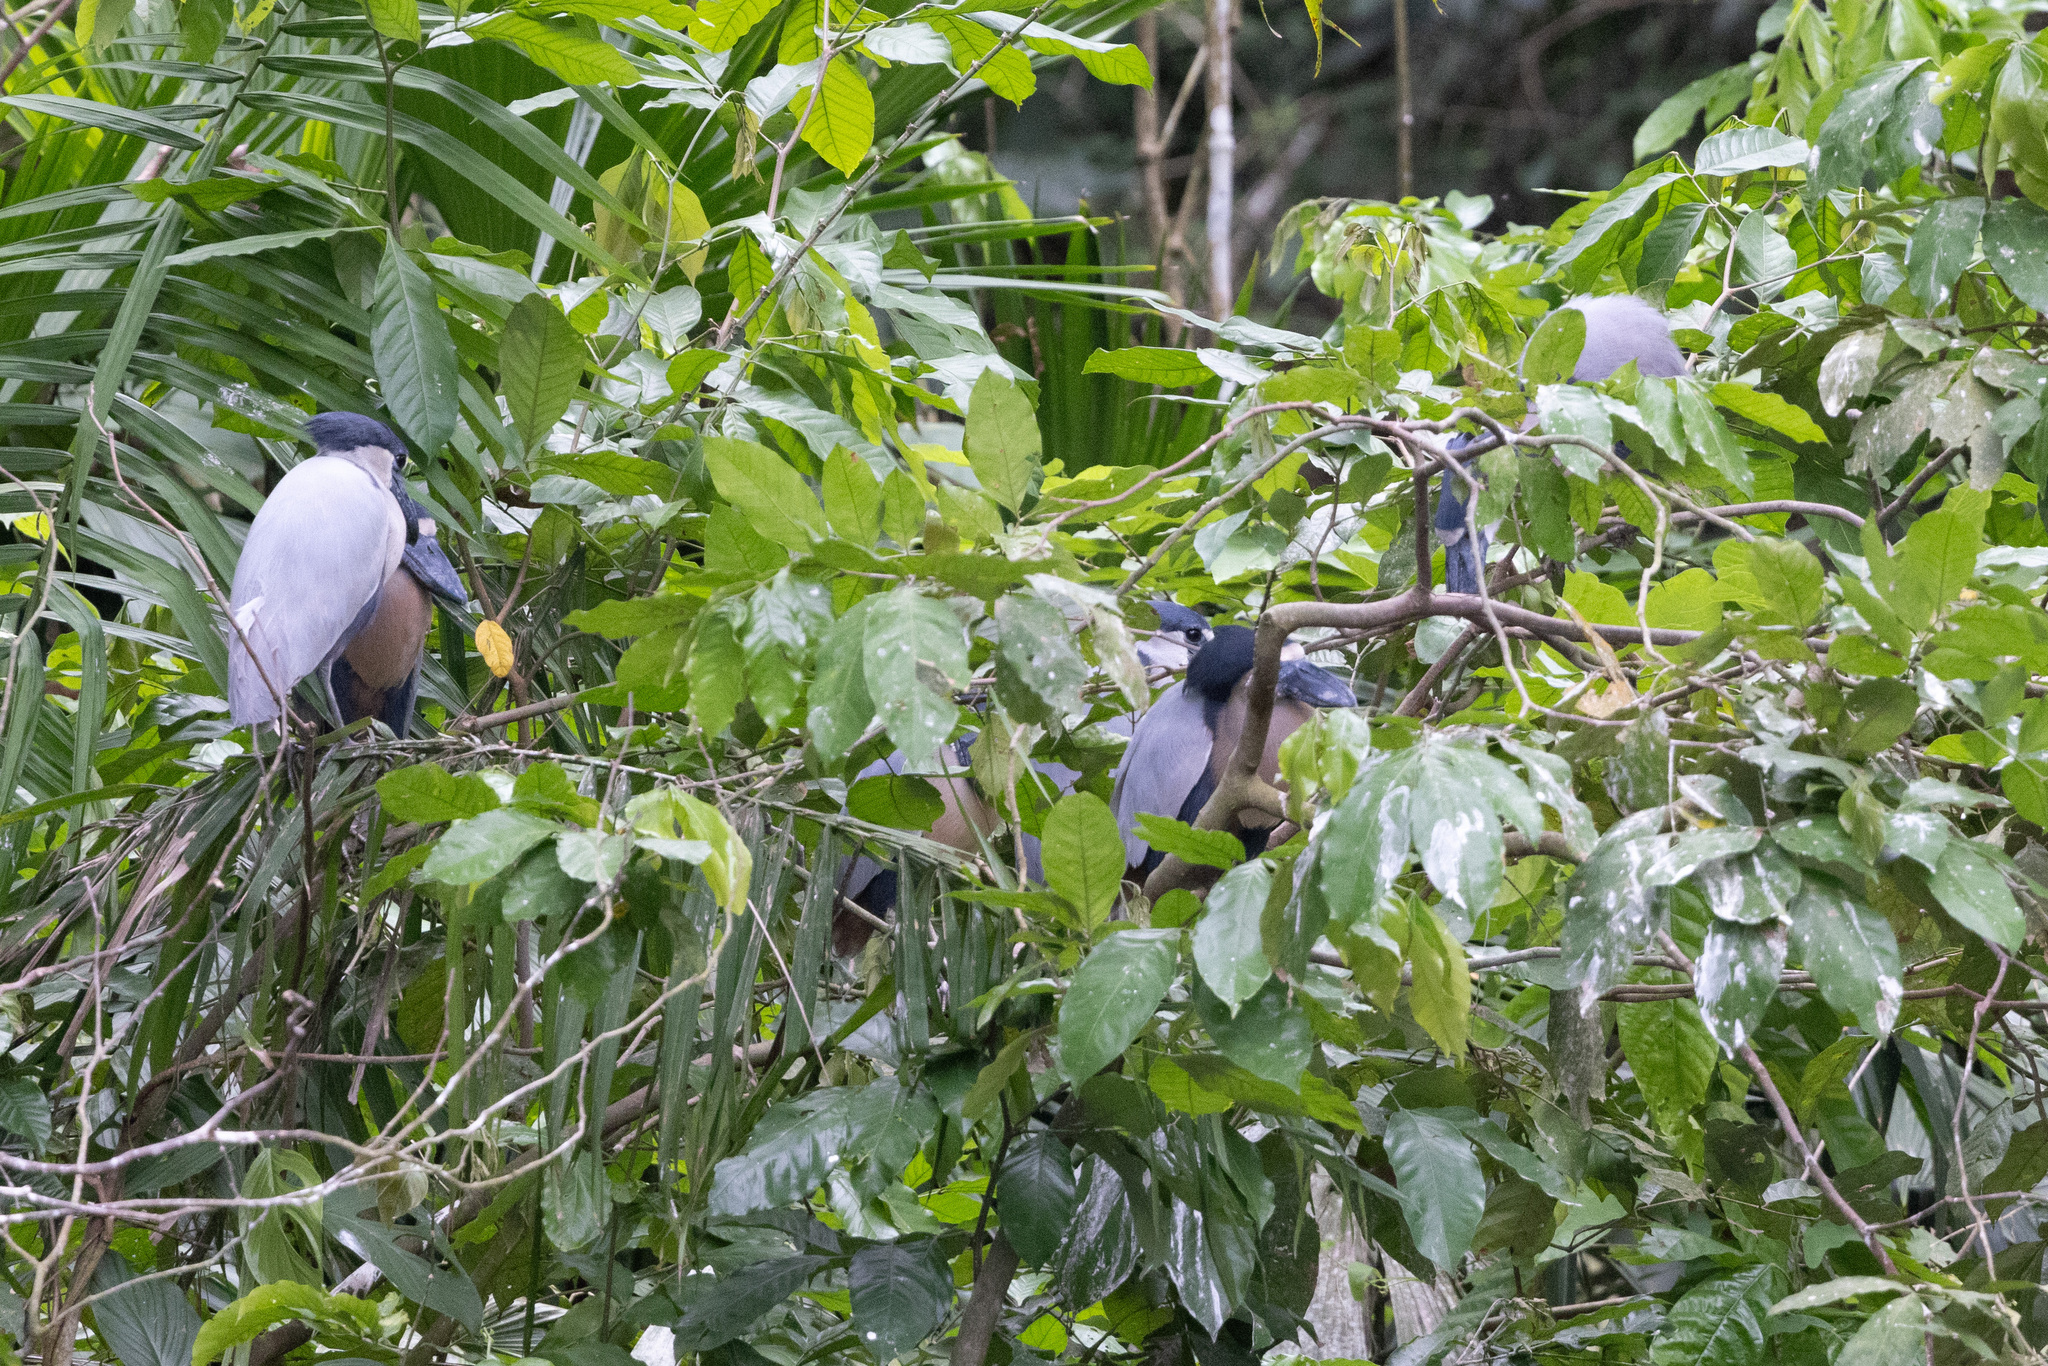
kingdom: Animalia
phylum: Chordata
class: Aves
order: Pelecaniformes
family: Ardeidae
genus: Cochlearius
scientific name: Cochlearius cochlearius
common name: Boat-billed heron
